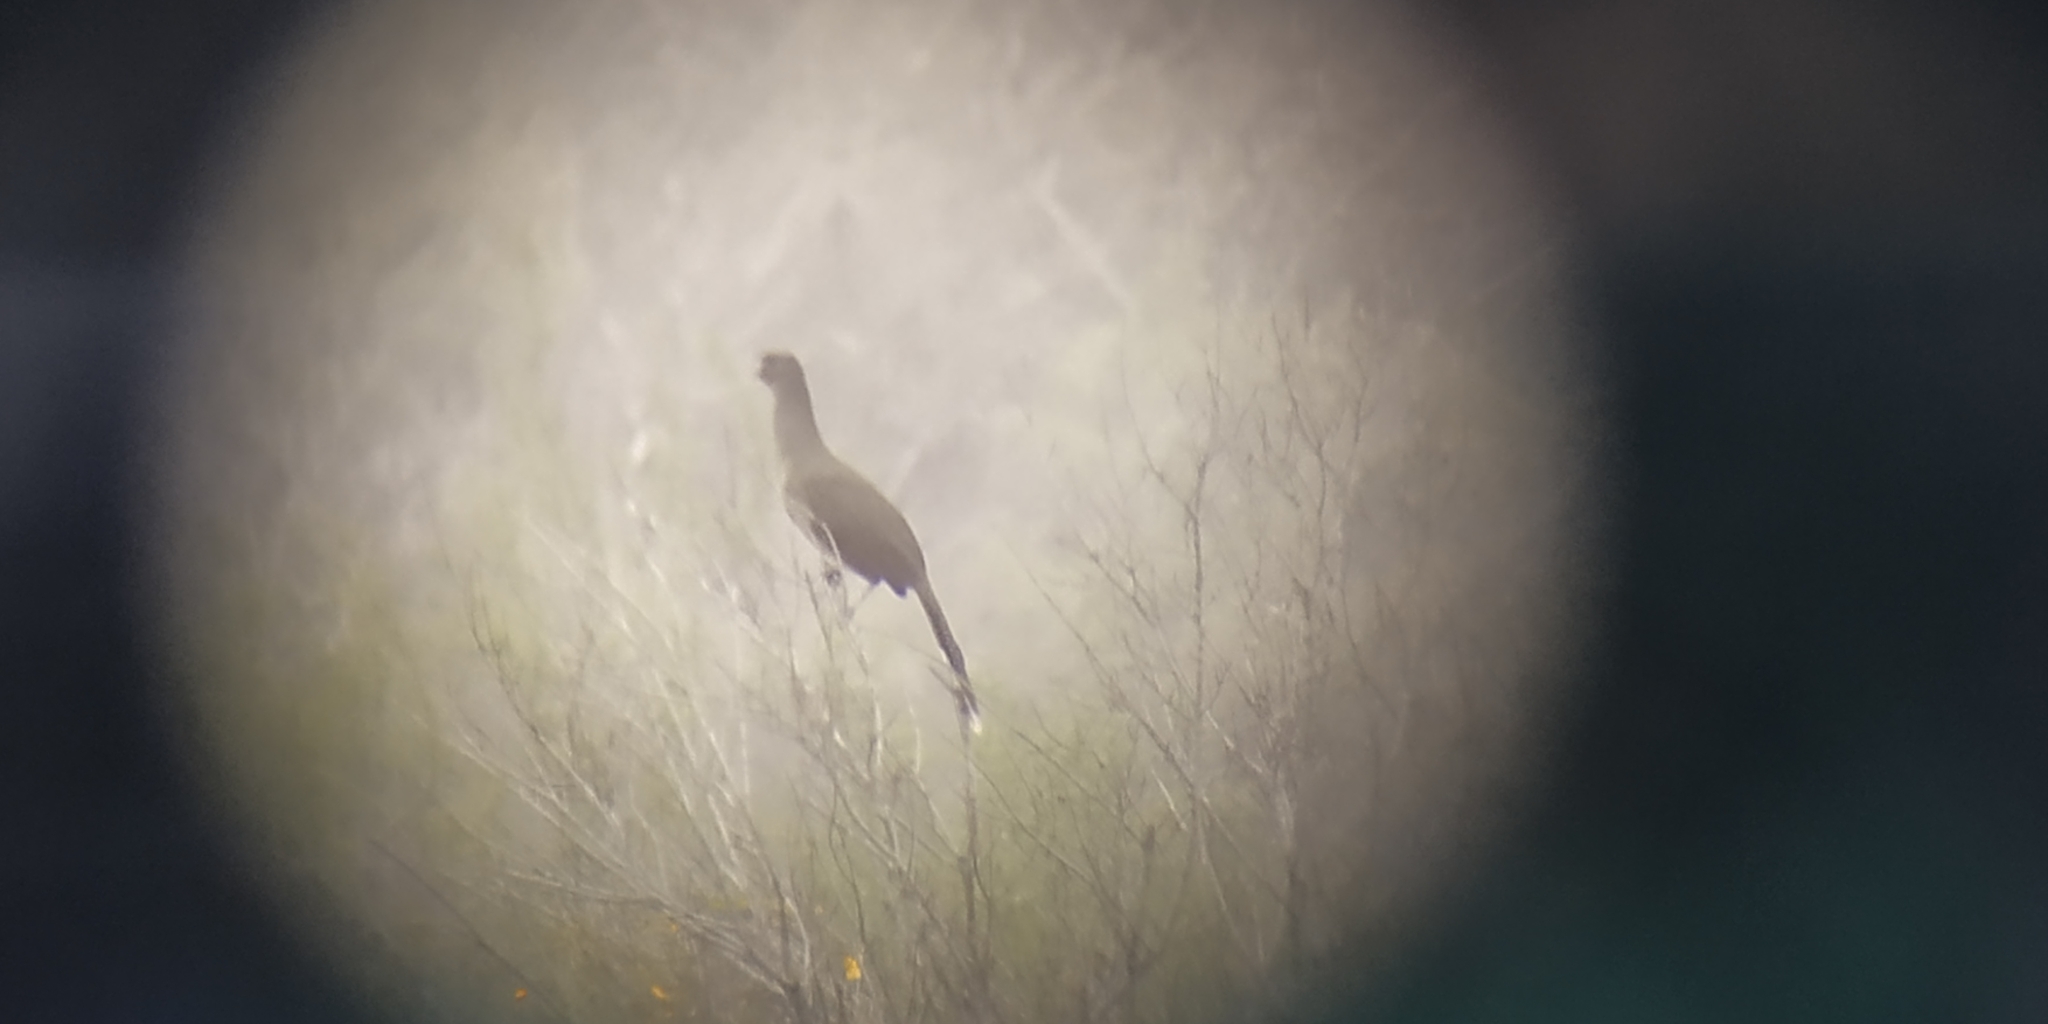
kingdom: Animalia
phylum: Chordata
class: Aves
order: Galliformes
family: Cracidae
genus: Ortalis
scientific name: Ortalis vetula
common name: Plain chachalaca
